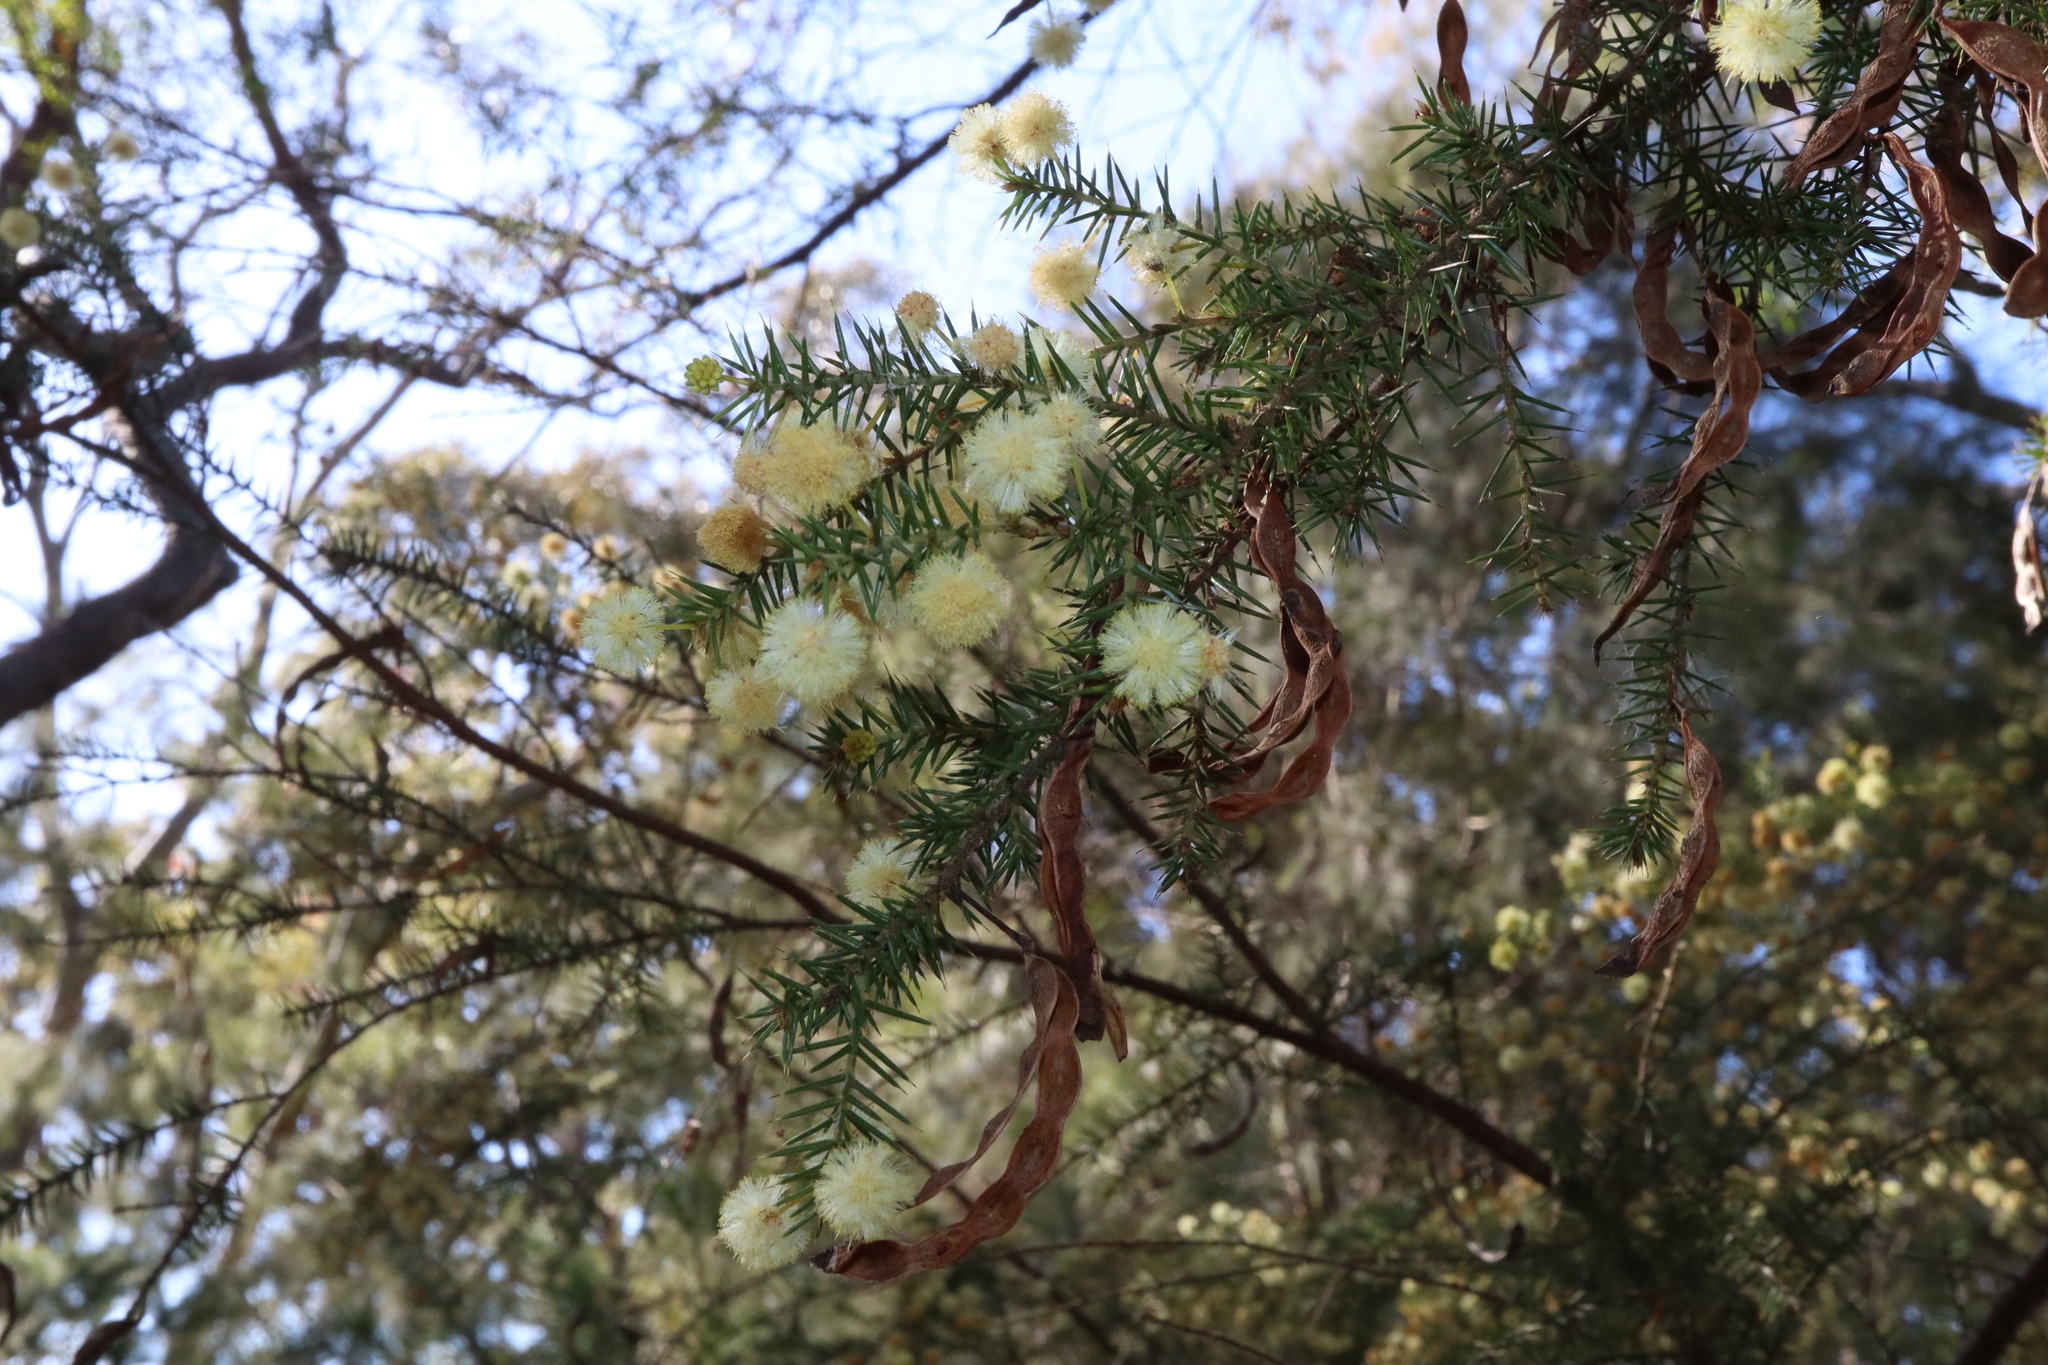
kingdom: Plantae
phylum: Tracheophyta
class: Magnoliopsida
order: Fabales
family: Fabaceae
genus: Acacia
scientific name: Acacia ulicifolia
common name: Juniper wattle
